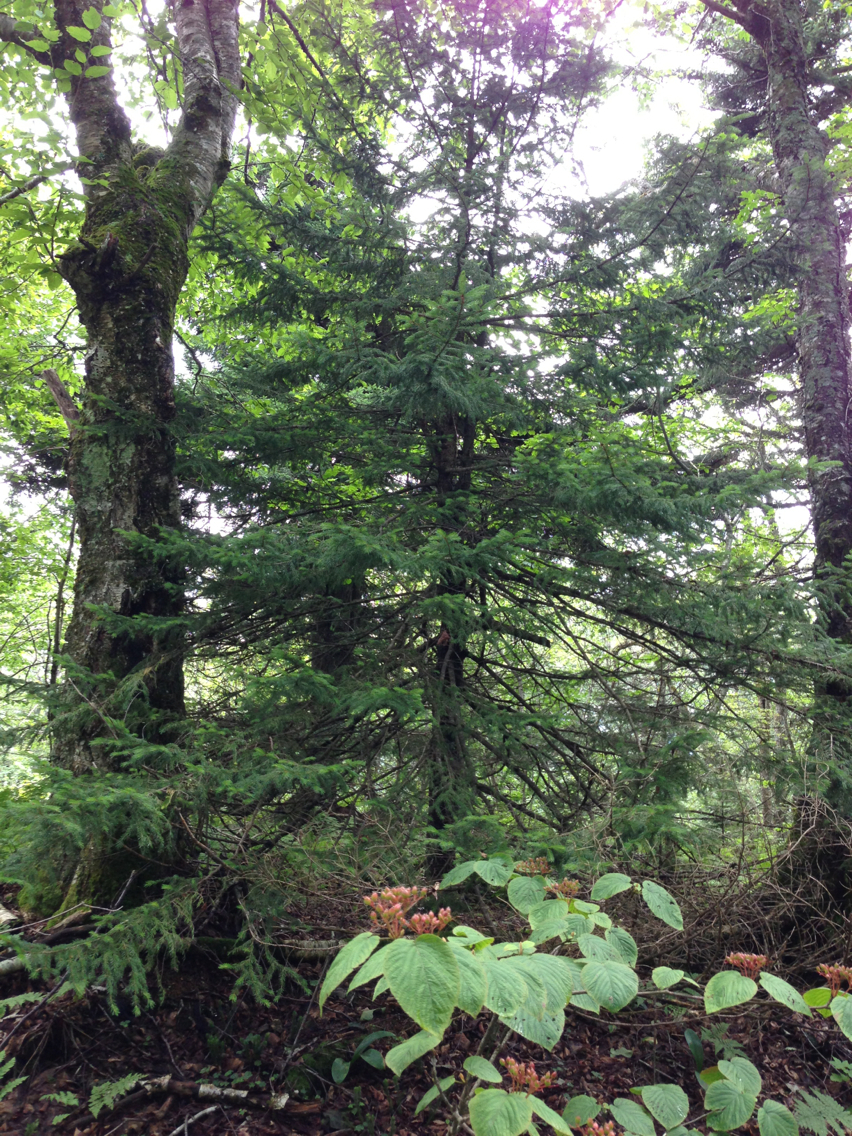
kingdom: Plantae
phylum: Tracheophyta
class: Pinopsida
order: Pinales
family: Pinaceae
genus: Picea
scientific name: Picea rubens
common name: Red spruce
